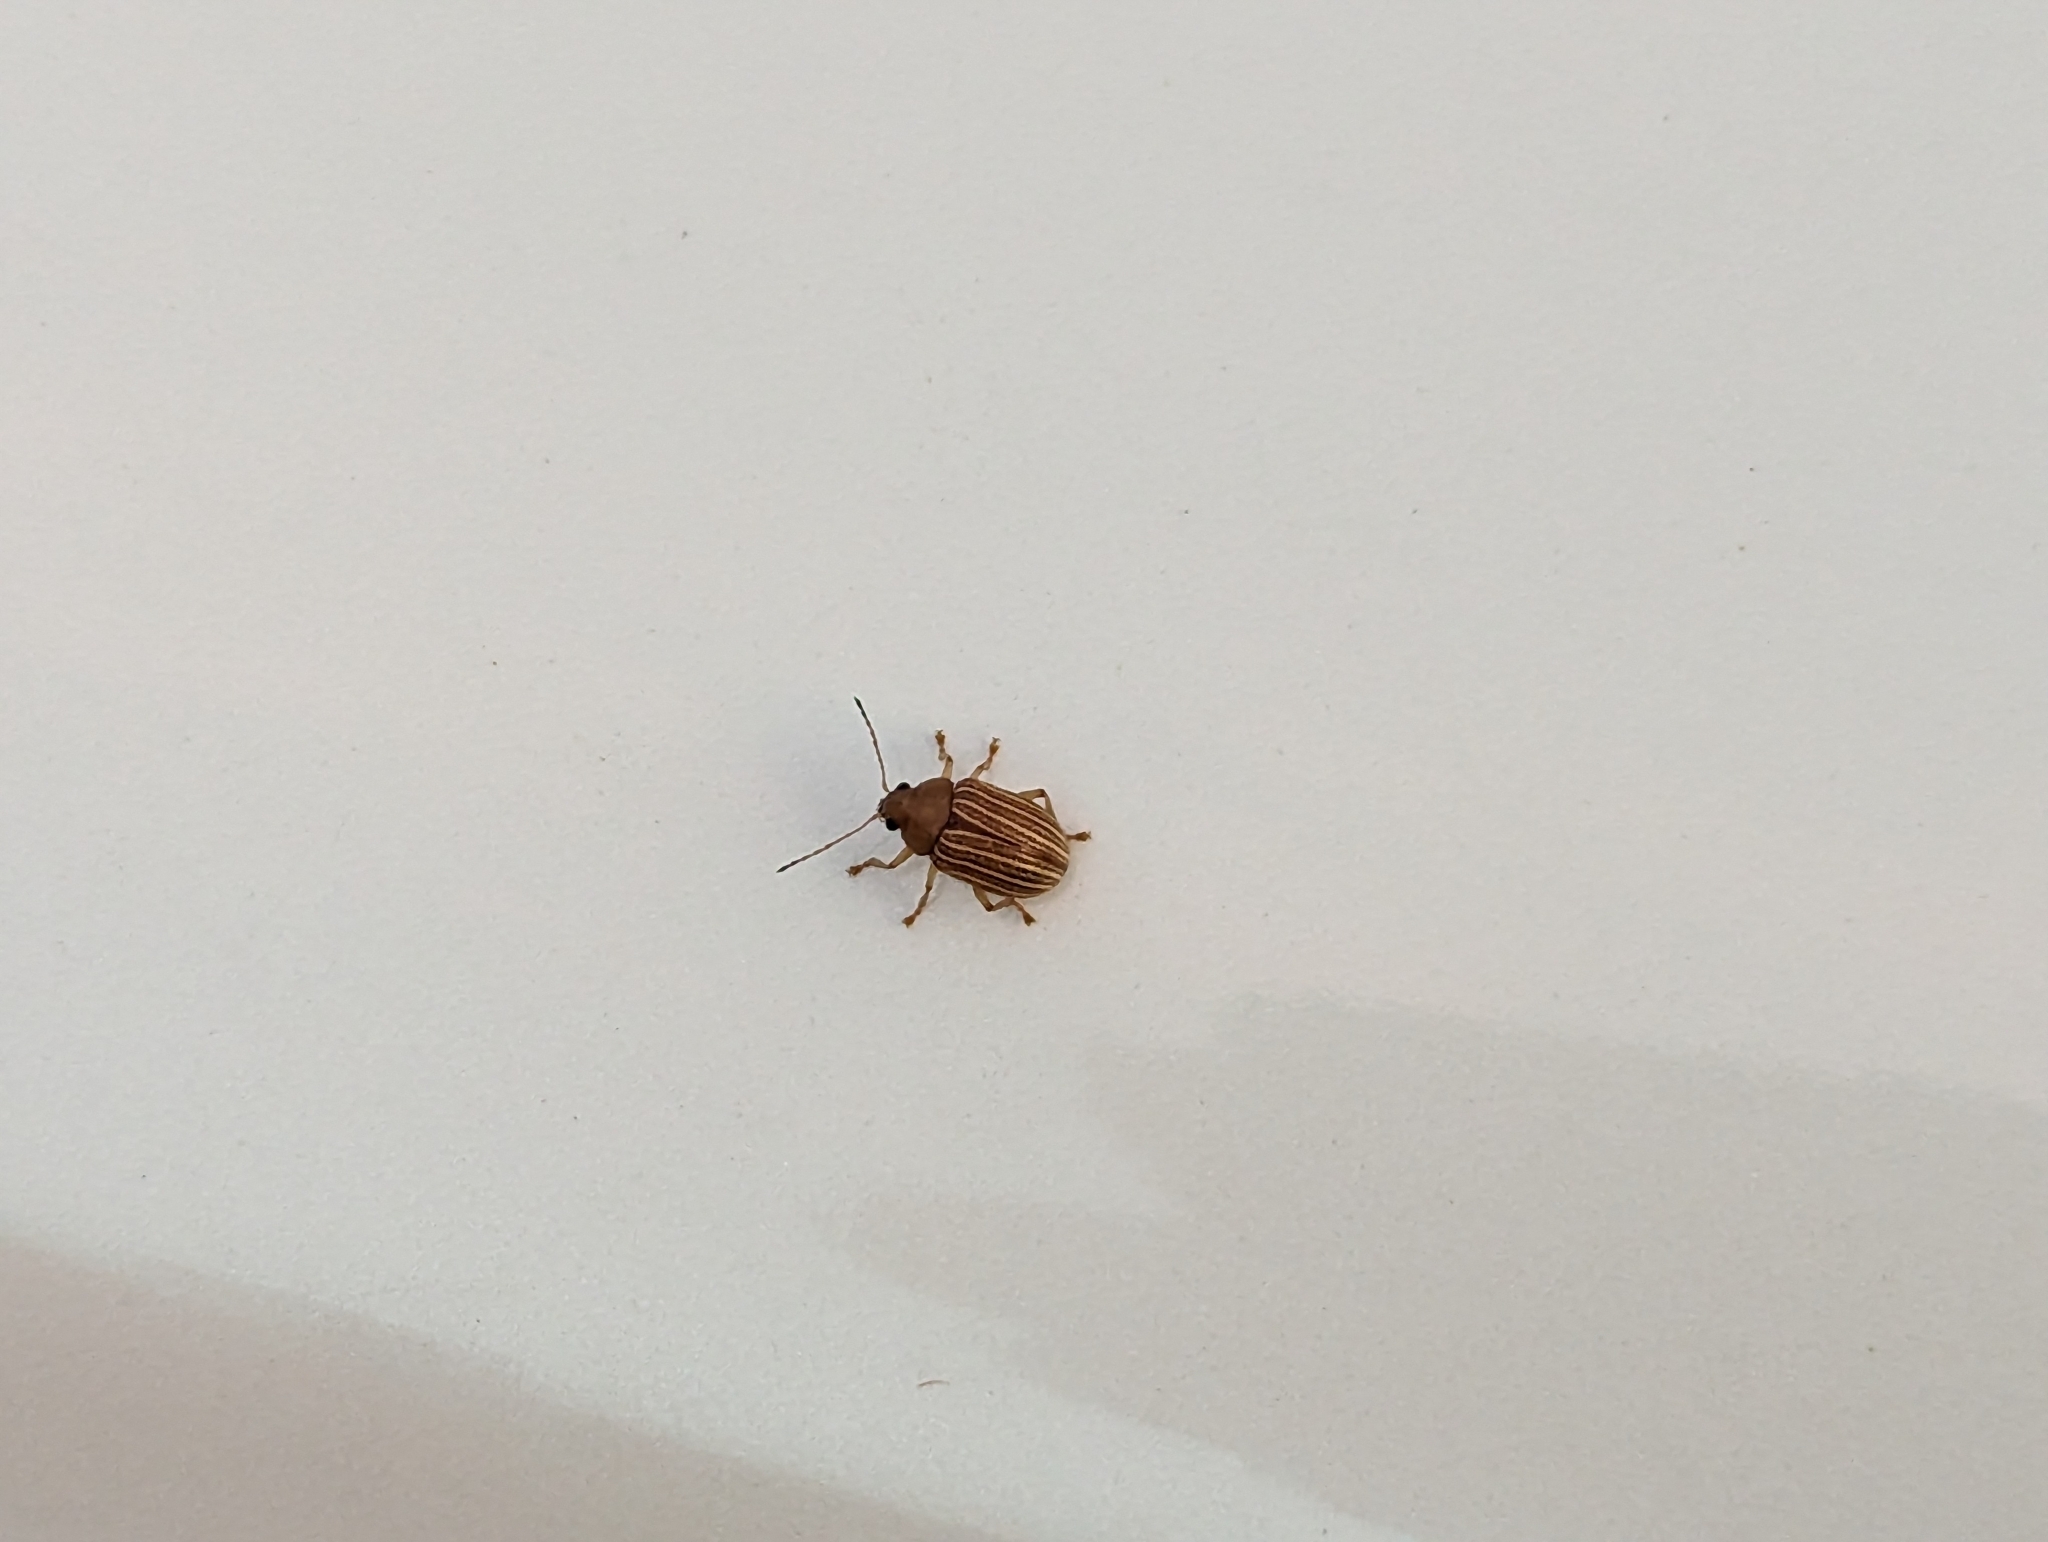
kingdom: Animalia
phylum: Arthropoda
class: Insecta
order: Coleoptera
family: Chrysomelidae
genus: Colaspis
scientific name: Colaspis brunnea
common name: Grape colaspis
